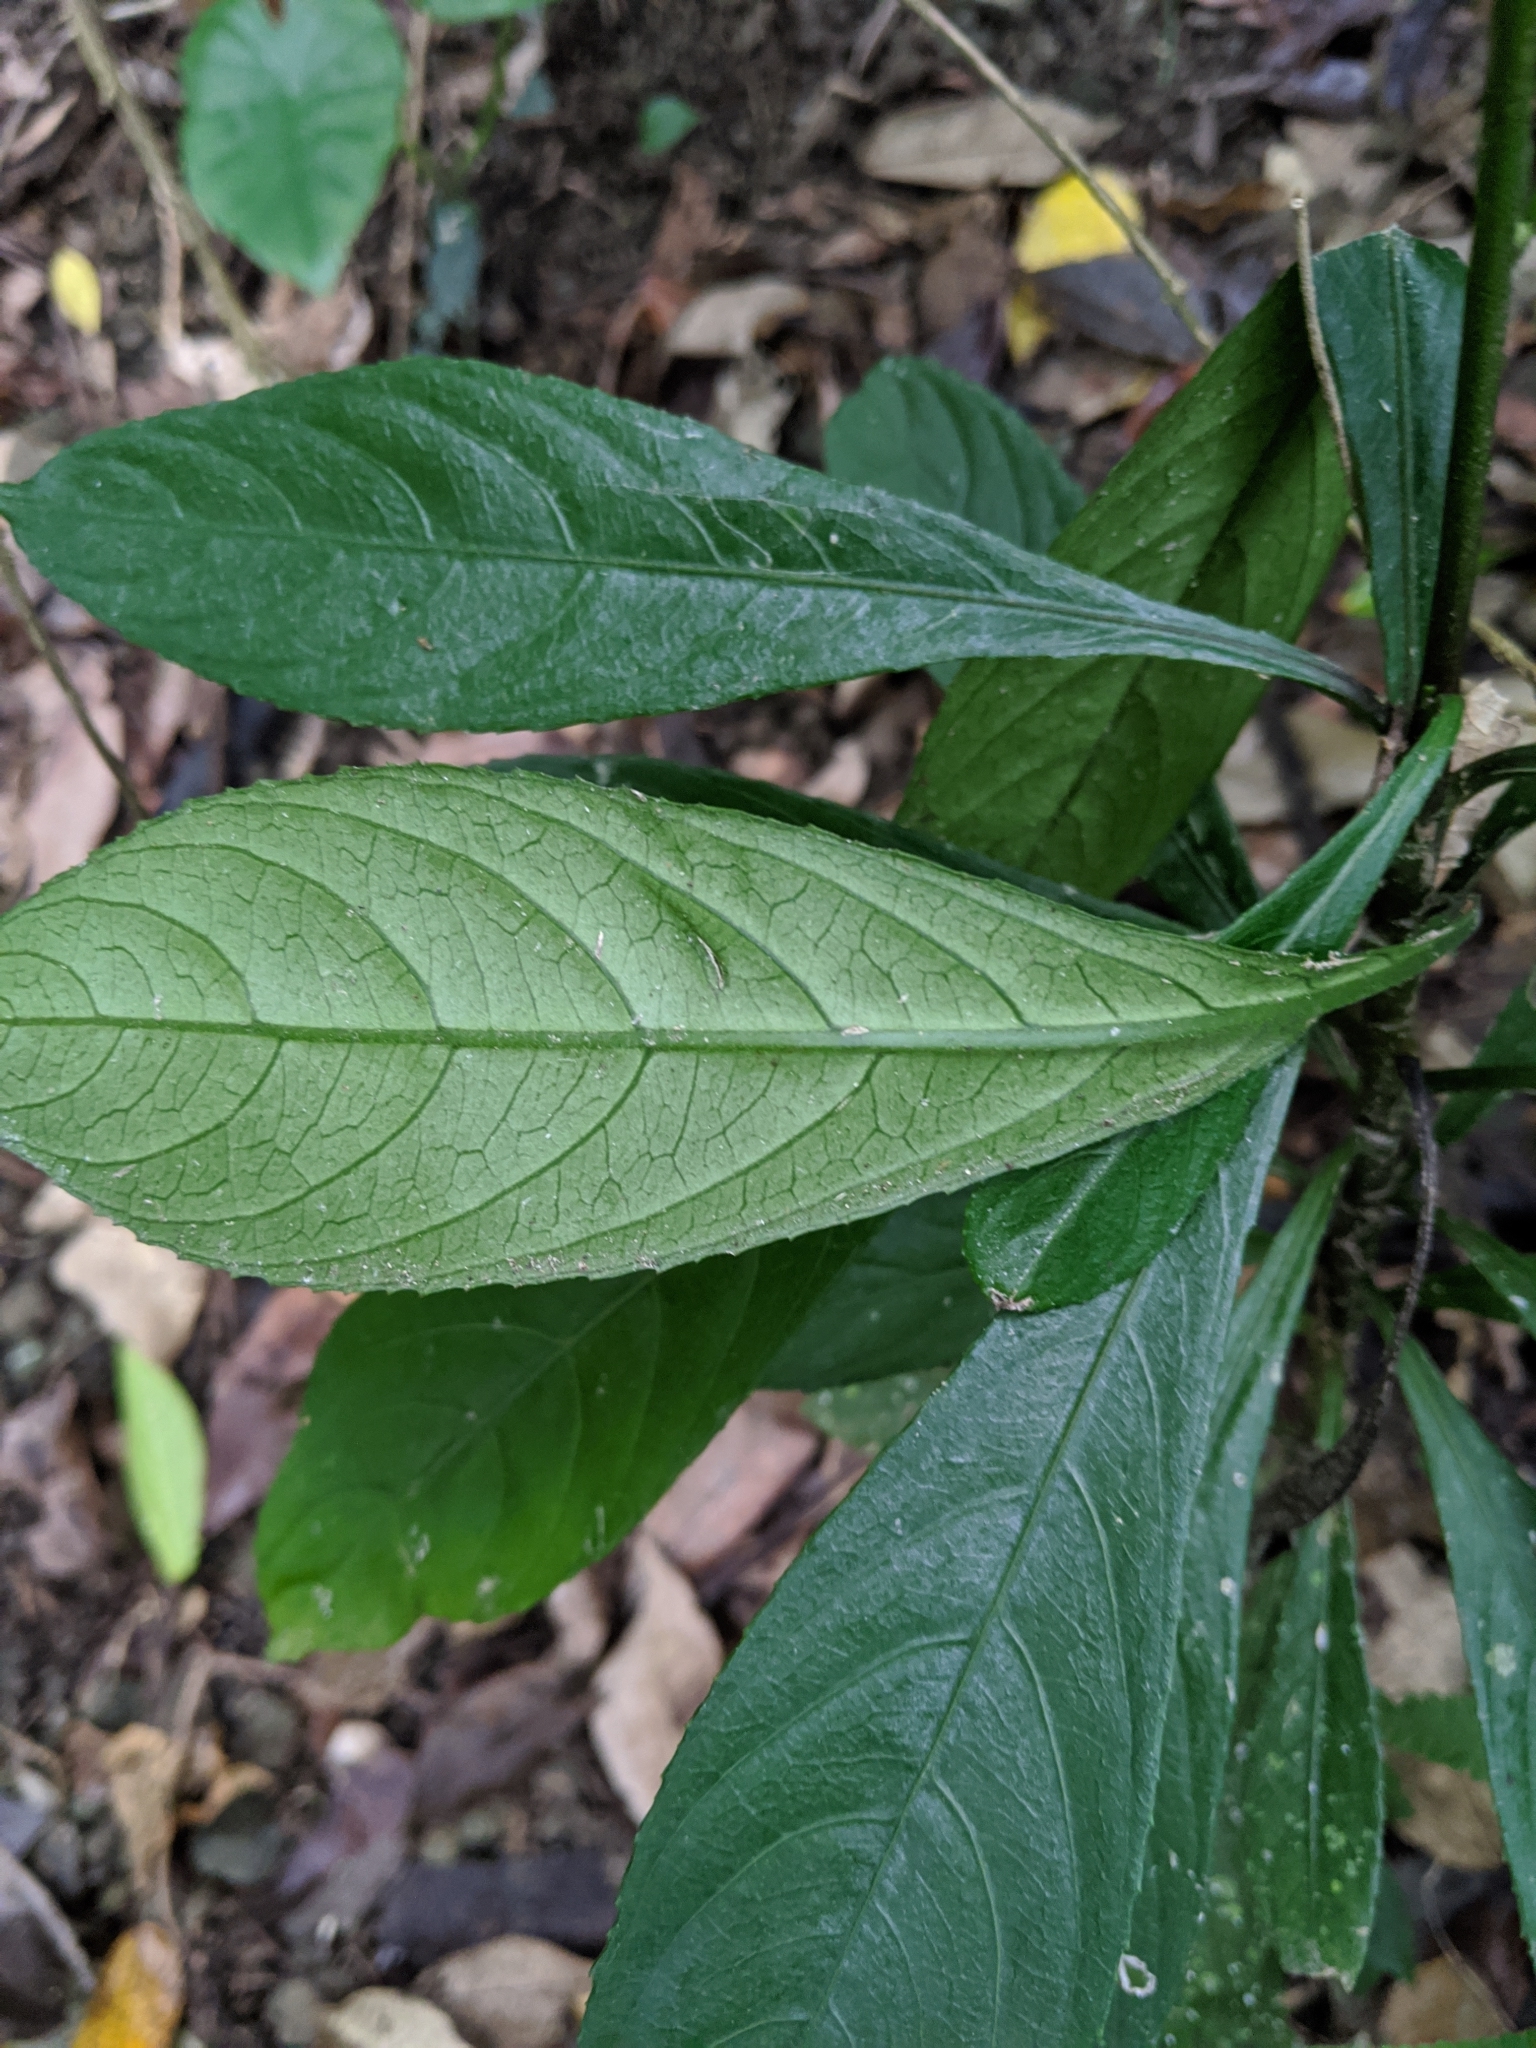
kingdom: Plantae
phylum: Tracheophyta
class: Magnoliopsida
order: Asterales
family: Asteraceae
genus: Blumea
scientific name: Blumea lanceolaria
